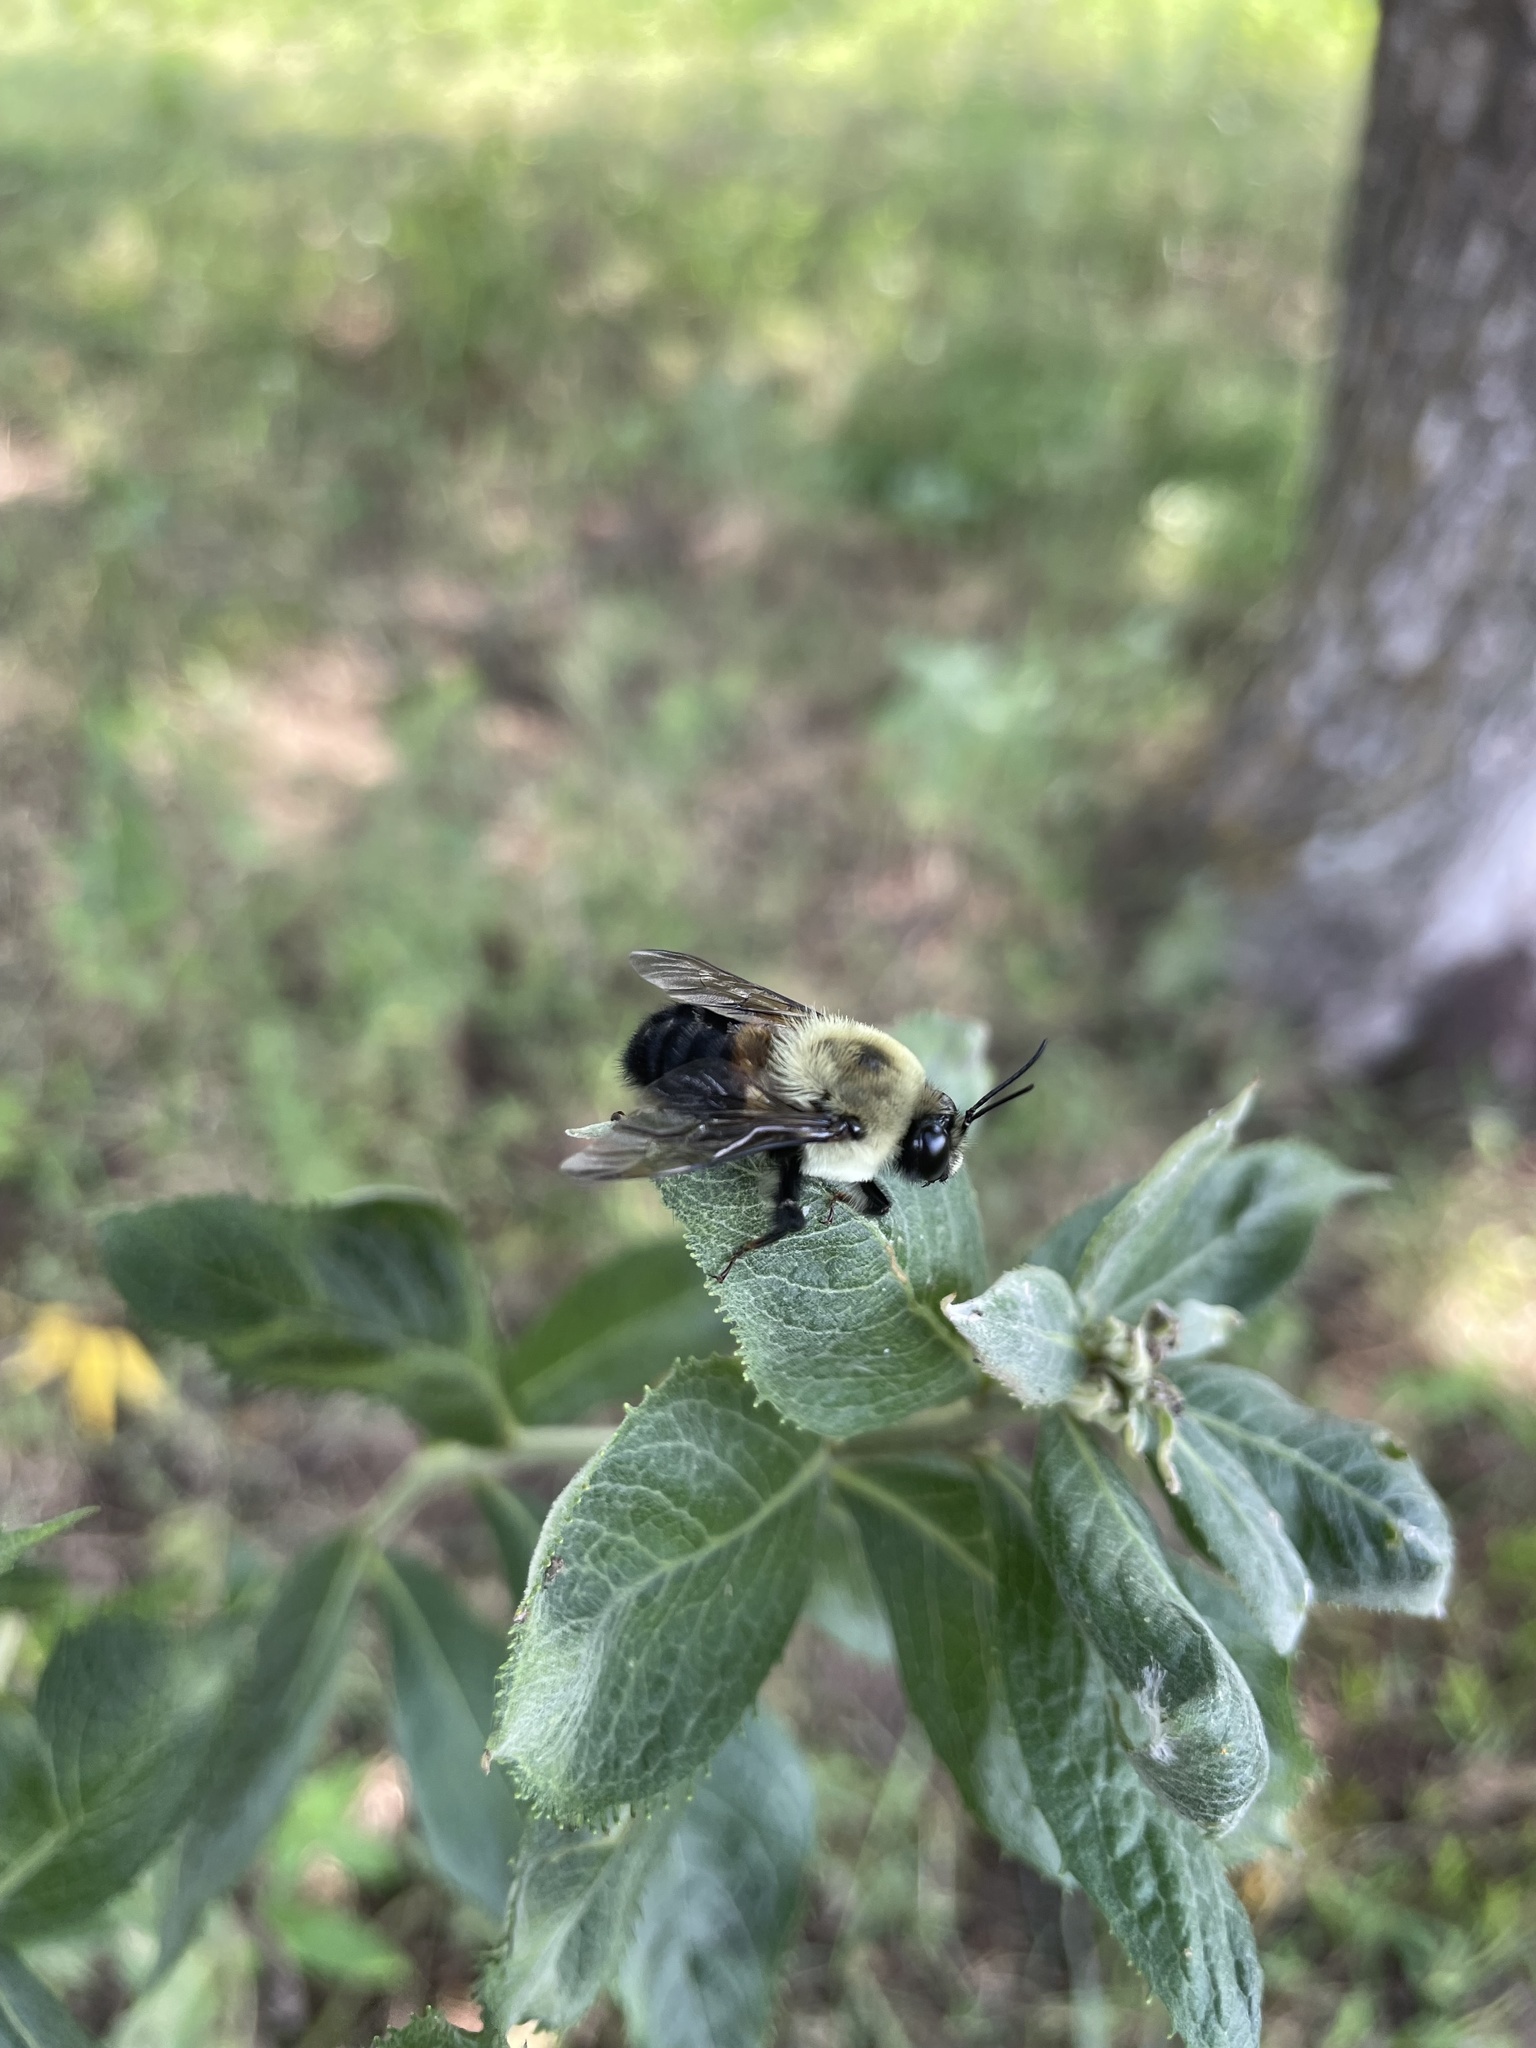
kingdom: Animalia
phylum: Arthropoda
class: Insecta
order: Hymenoptera
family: Apidae
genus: Bombus
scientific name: Bombus griseocollis
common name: Brown-belted bumble bee
